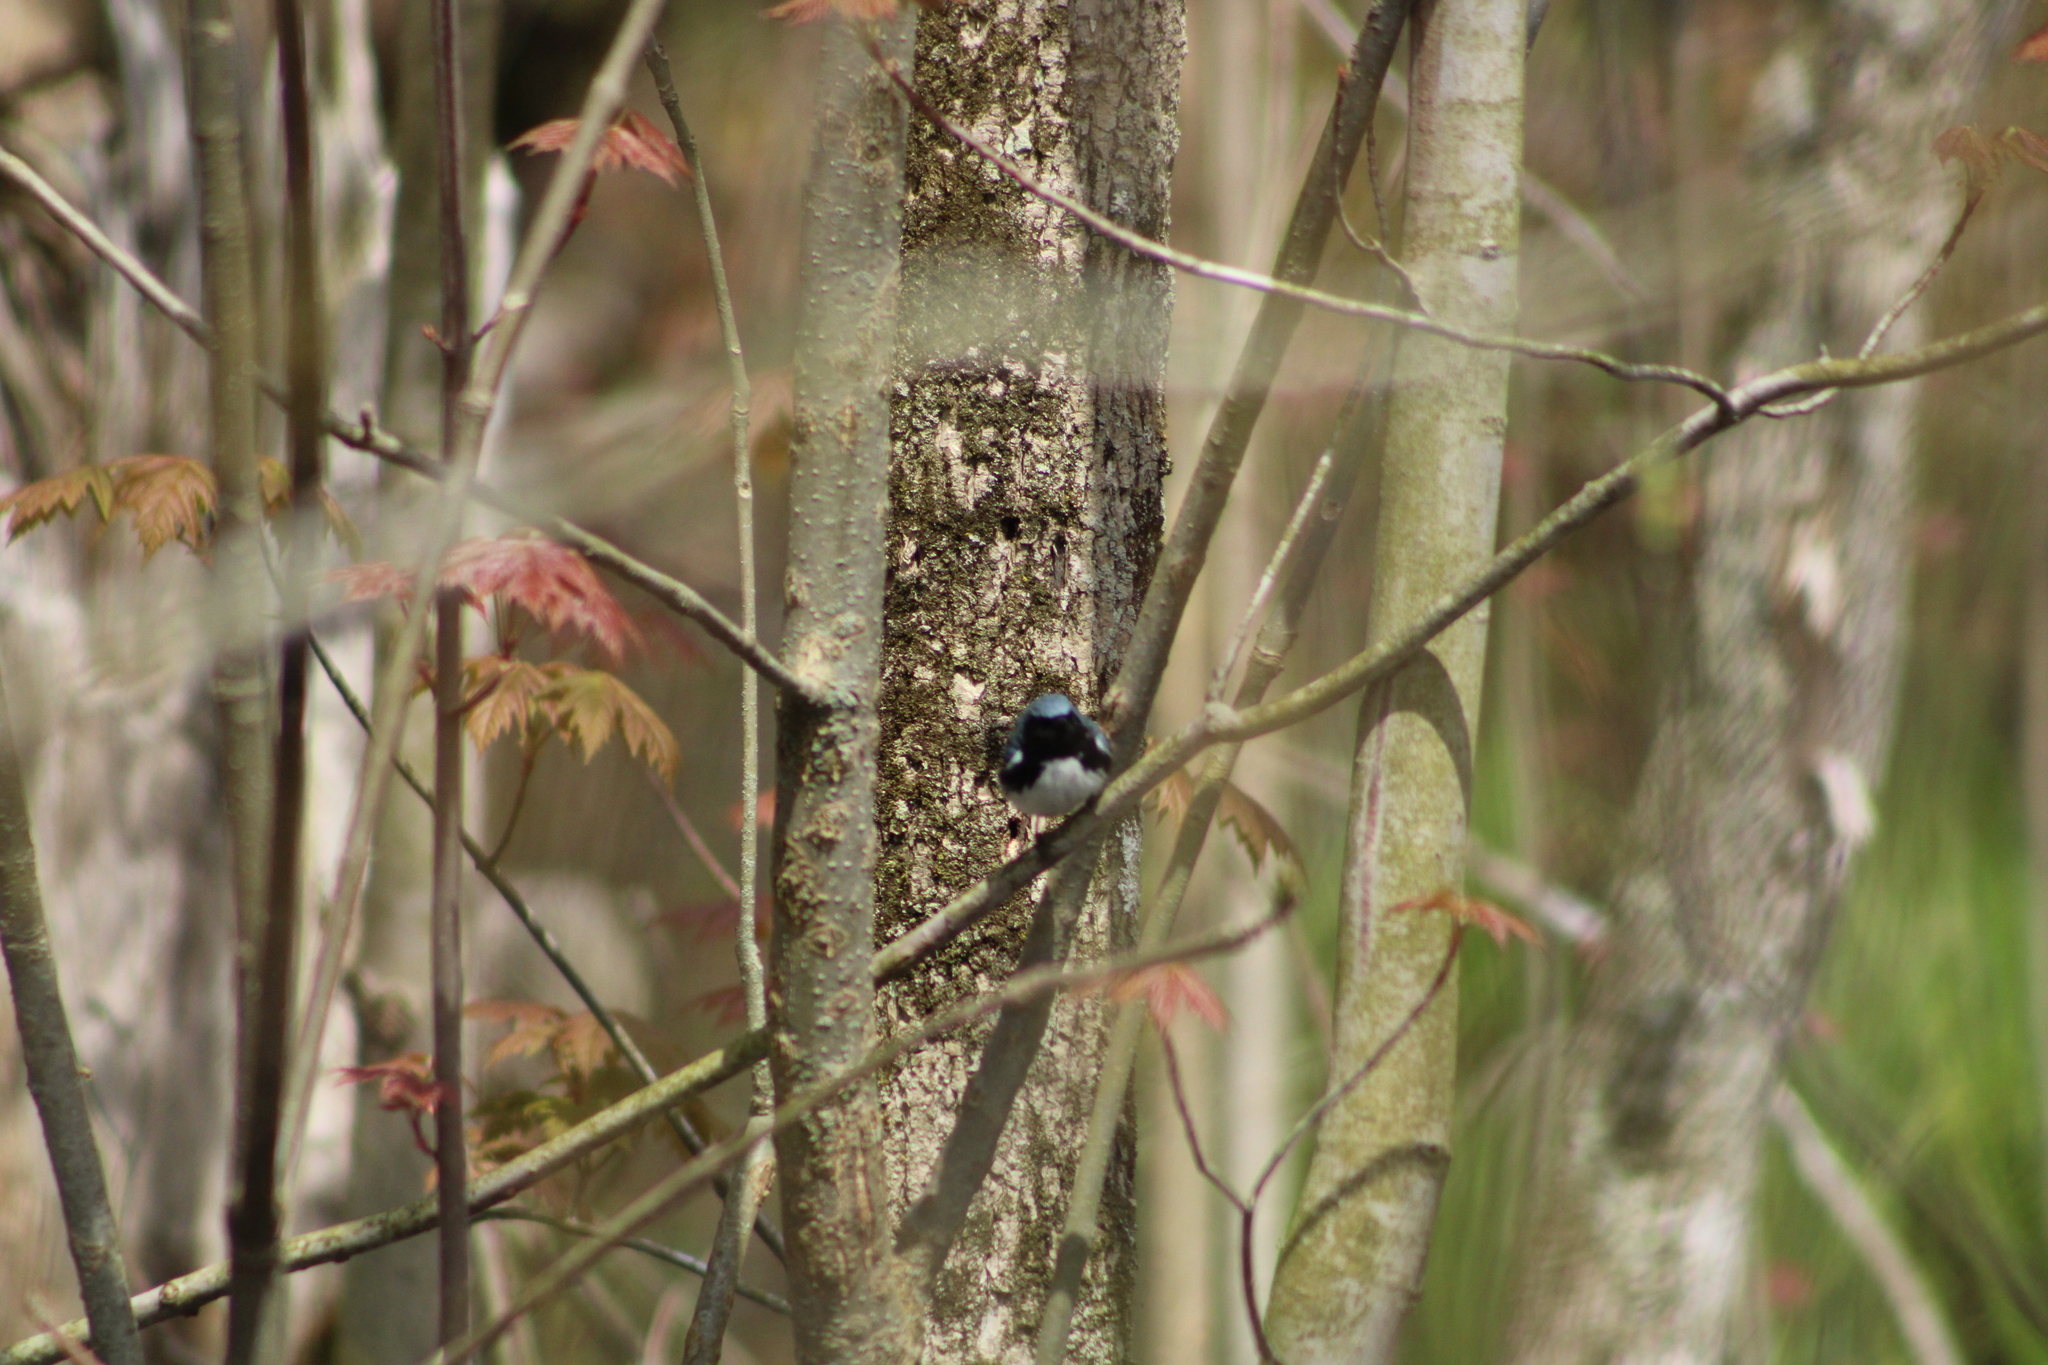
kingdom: Animalia
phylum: Chordata
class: Aves
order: Passeriformes
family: Parulidae
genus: Setophaga
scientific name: Setophaga caerulescens
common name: Black-throated blue warbler
